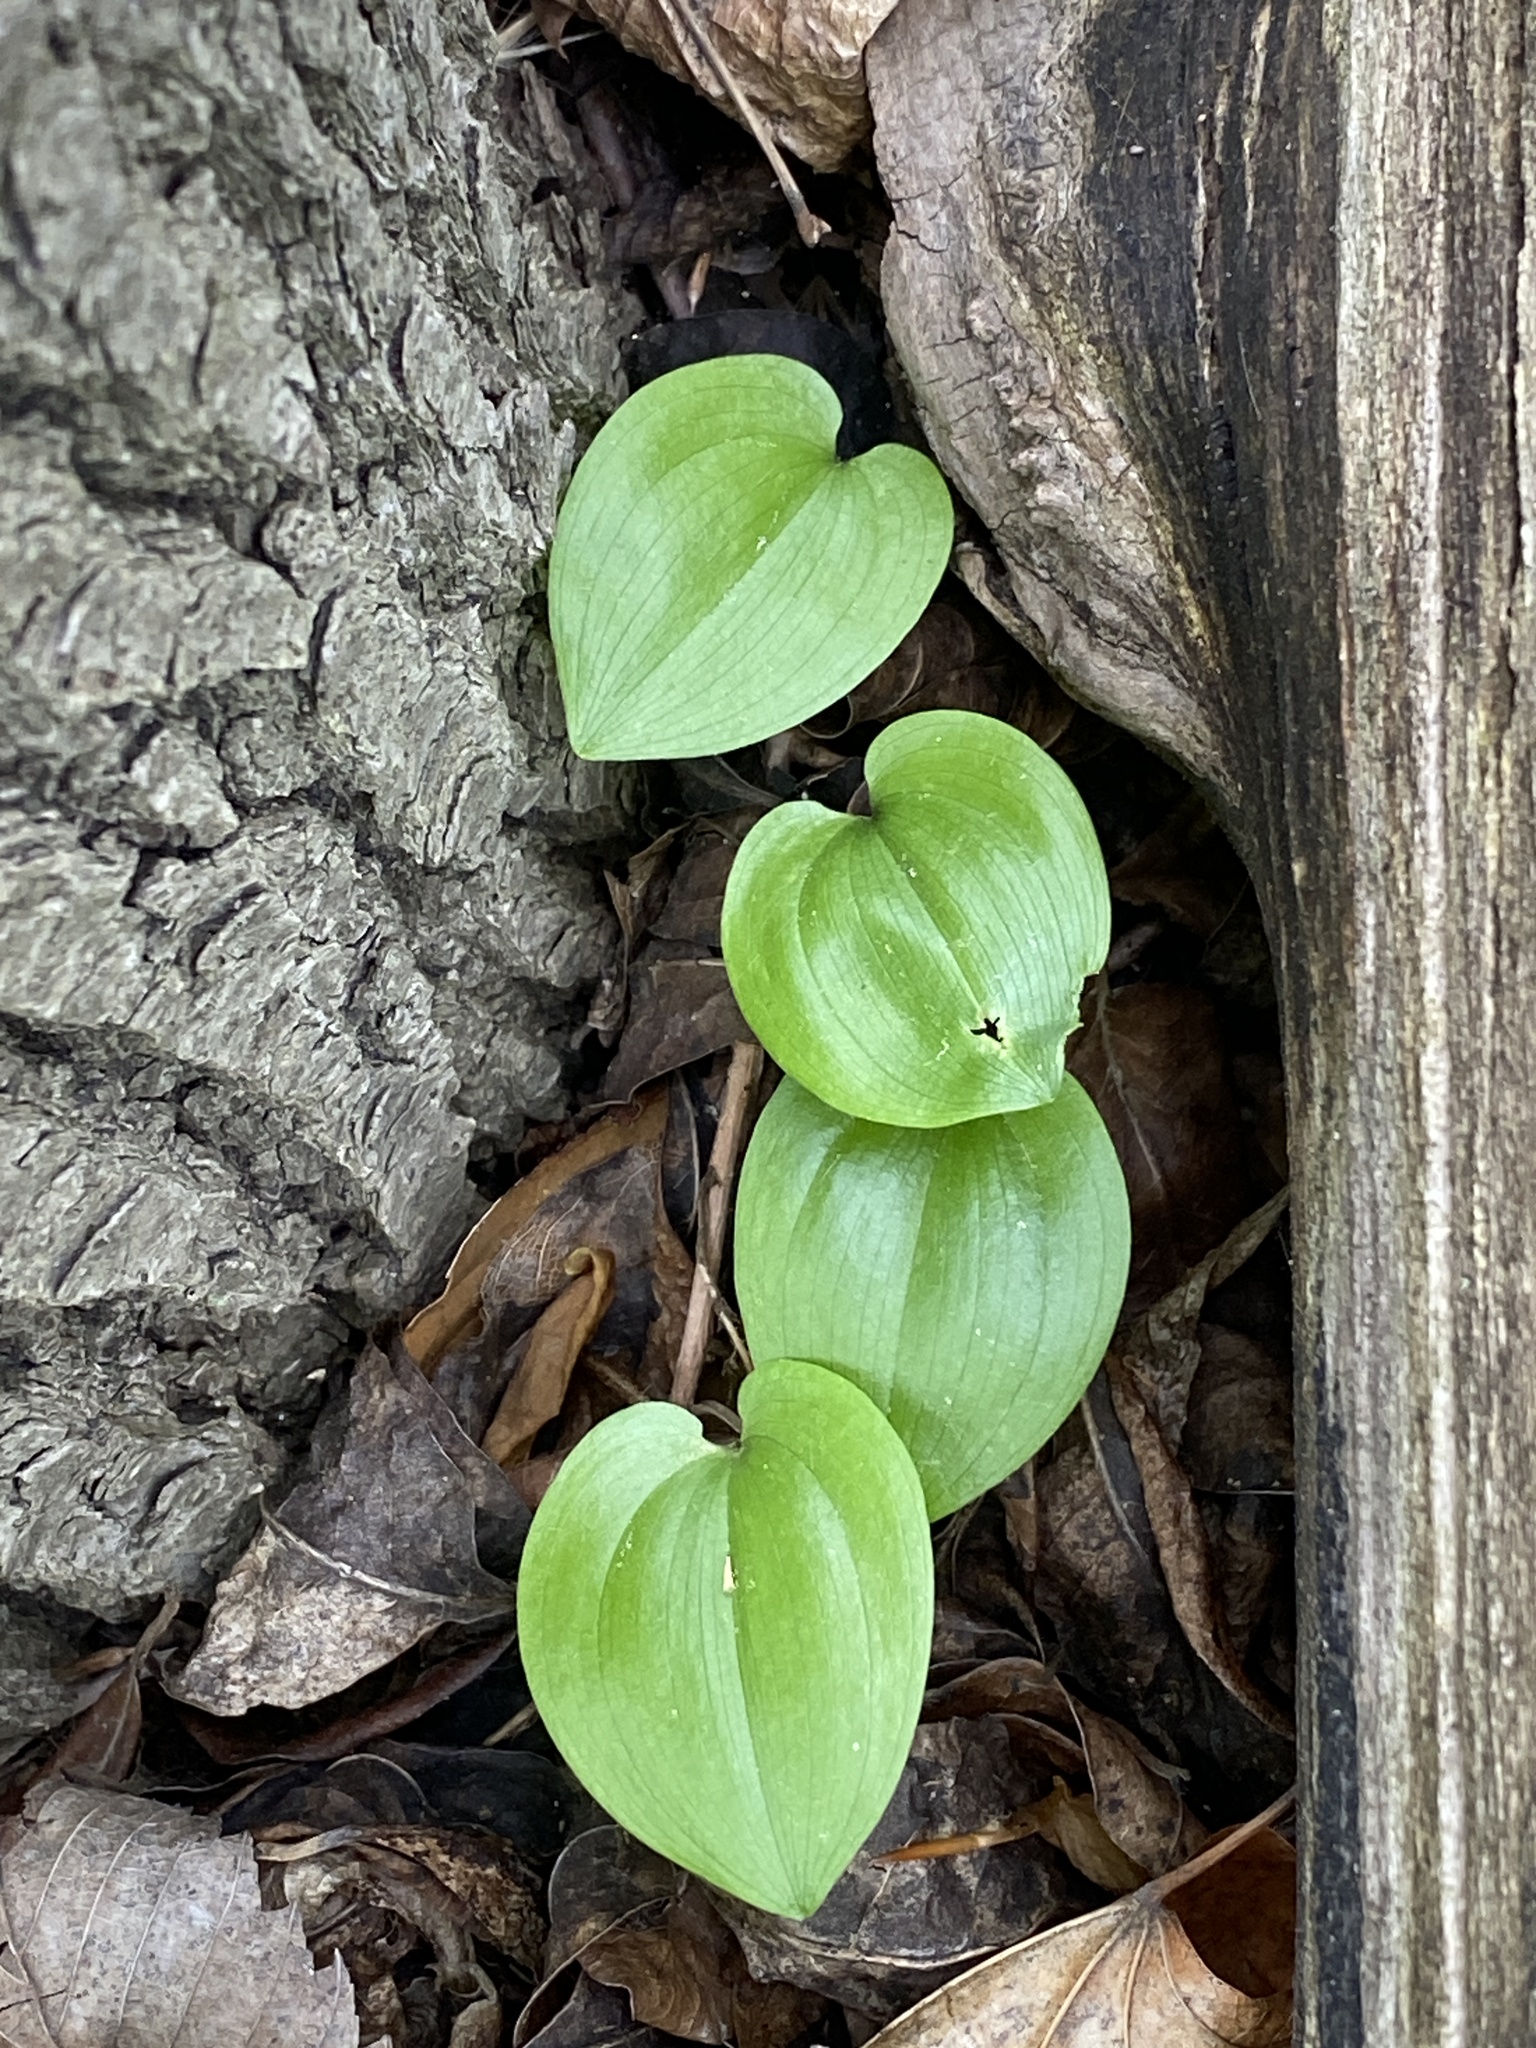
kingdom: Plantae
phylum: Tracheophyta
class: Liliopsida
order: Asparagales
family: Asparagaceae
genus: Maianthemum
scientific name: Maianthemum canadense
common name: False lily-of-the-valley
